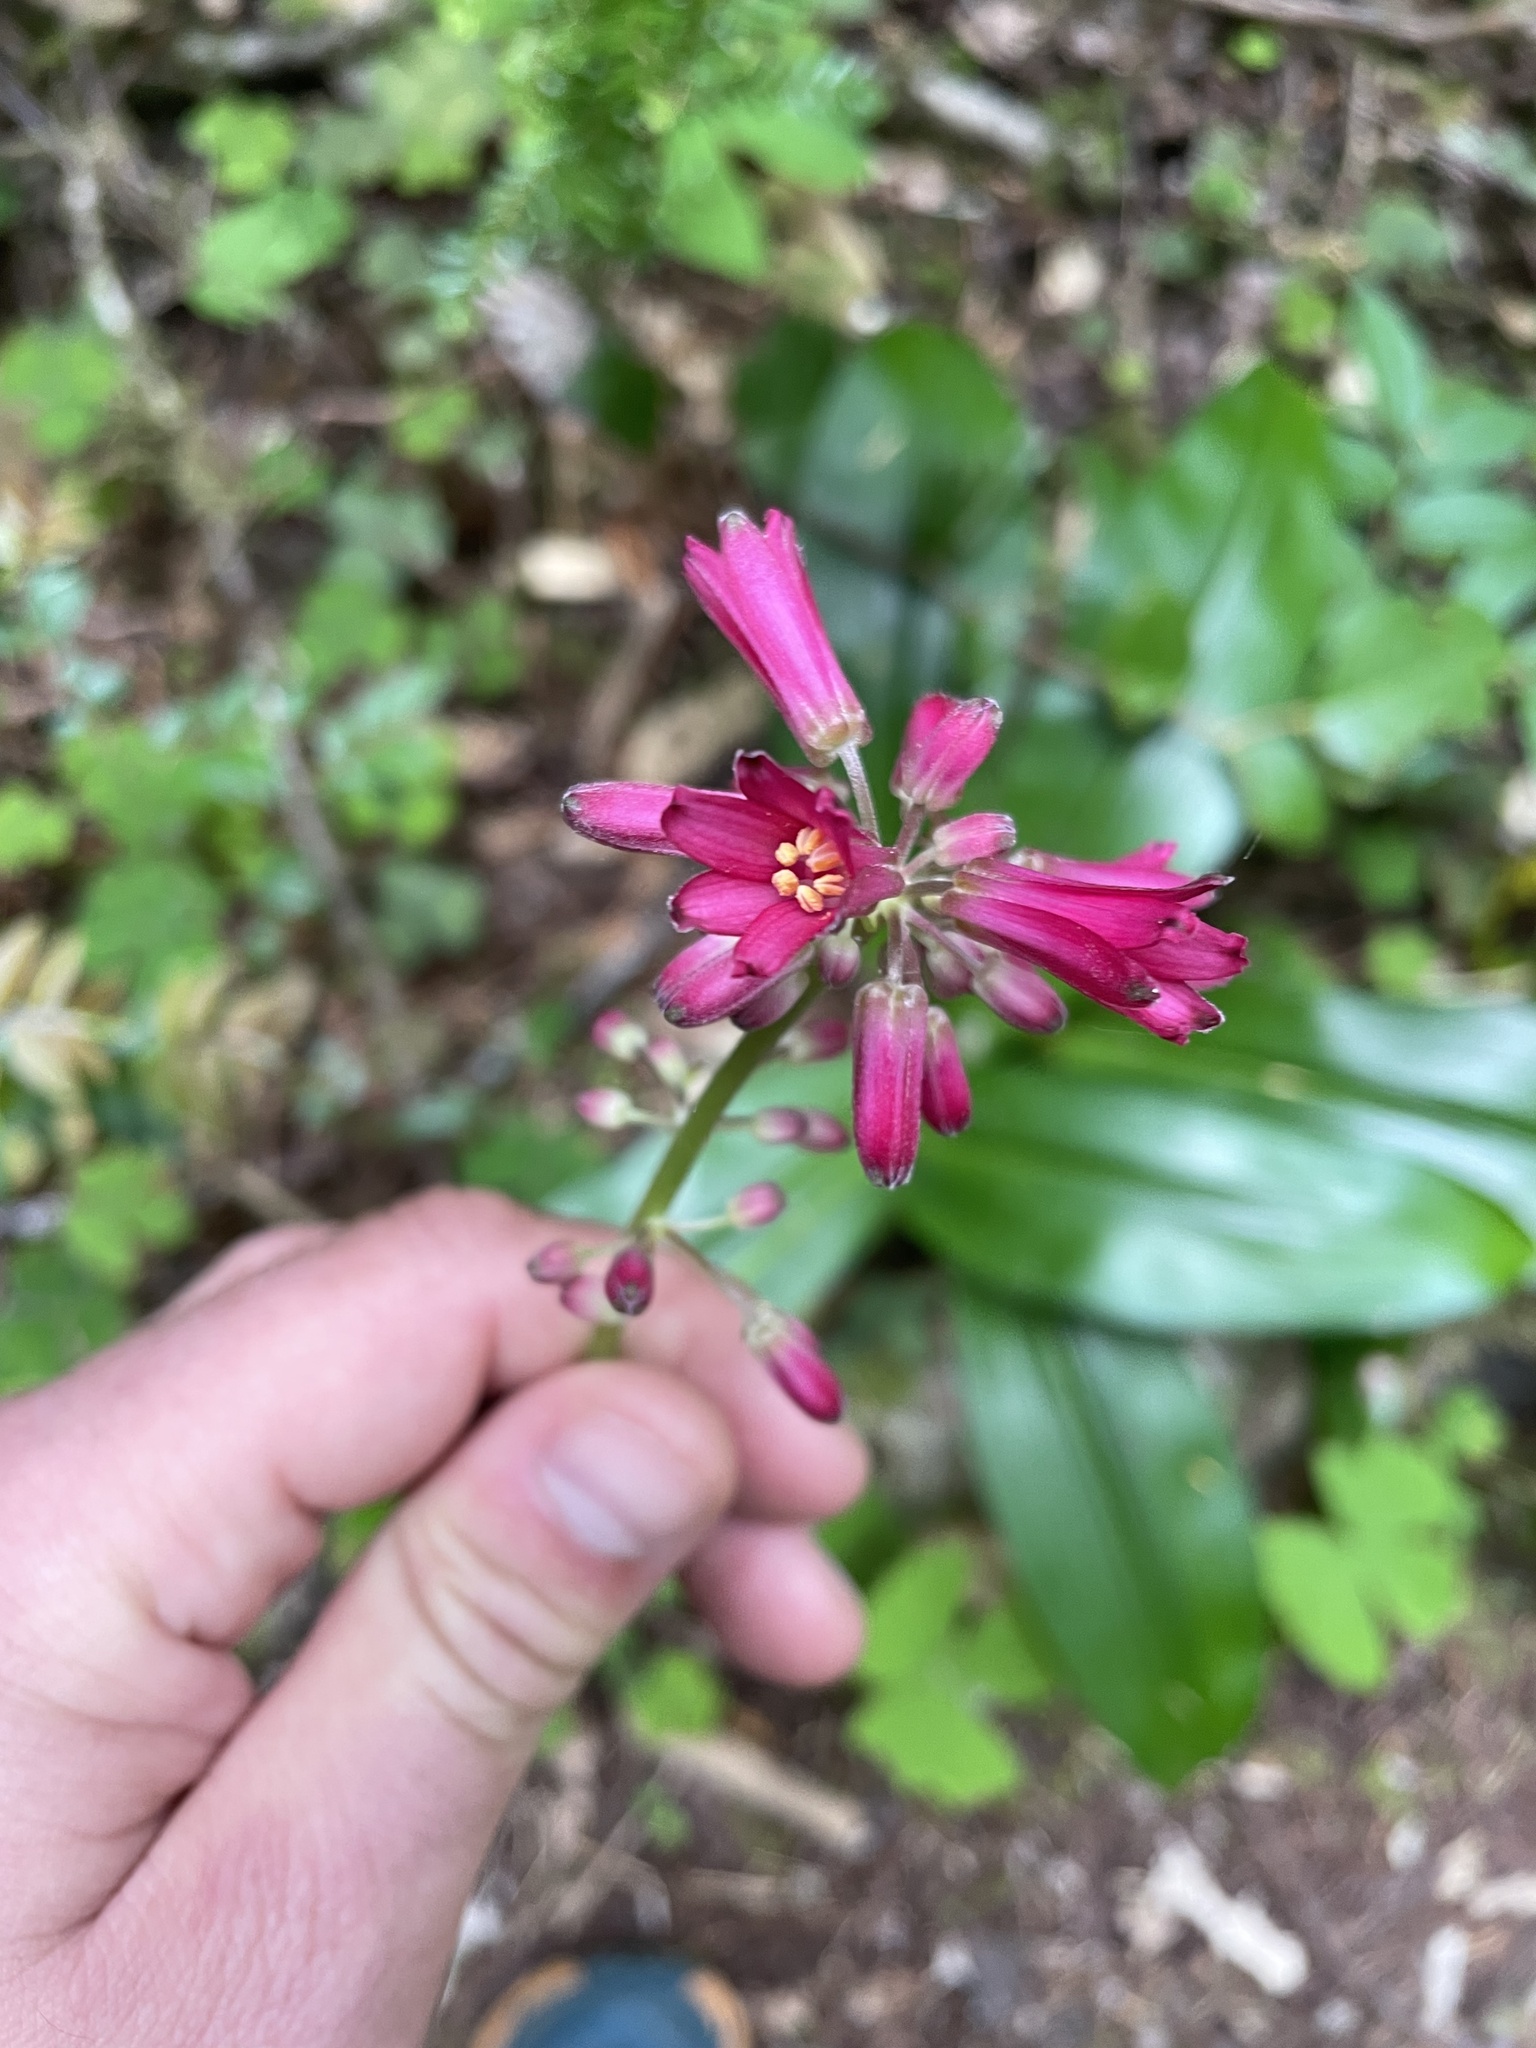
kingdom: Plantae
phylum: Tracheophyta
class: Liliopsida
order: Liliales
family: Liliaceae
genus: Clintonia
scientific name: Clintonia andrewsiana
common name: Red clintonia
